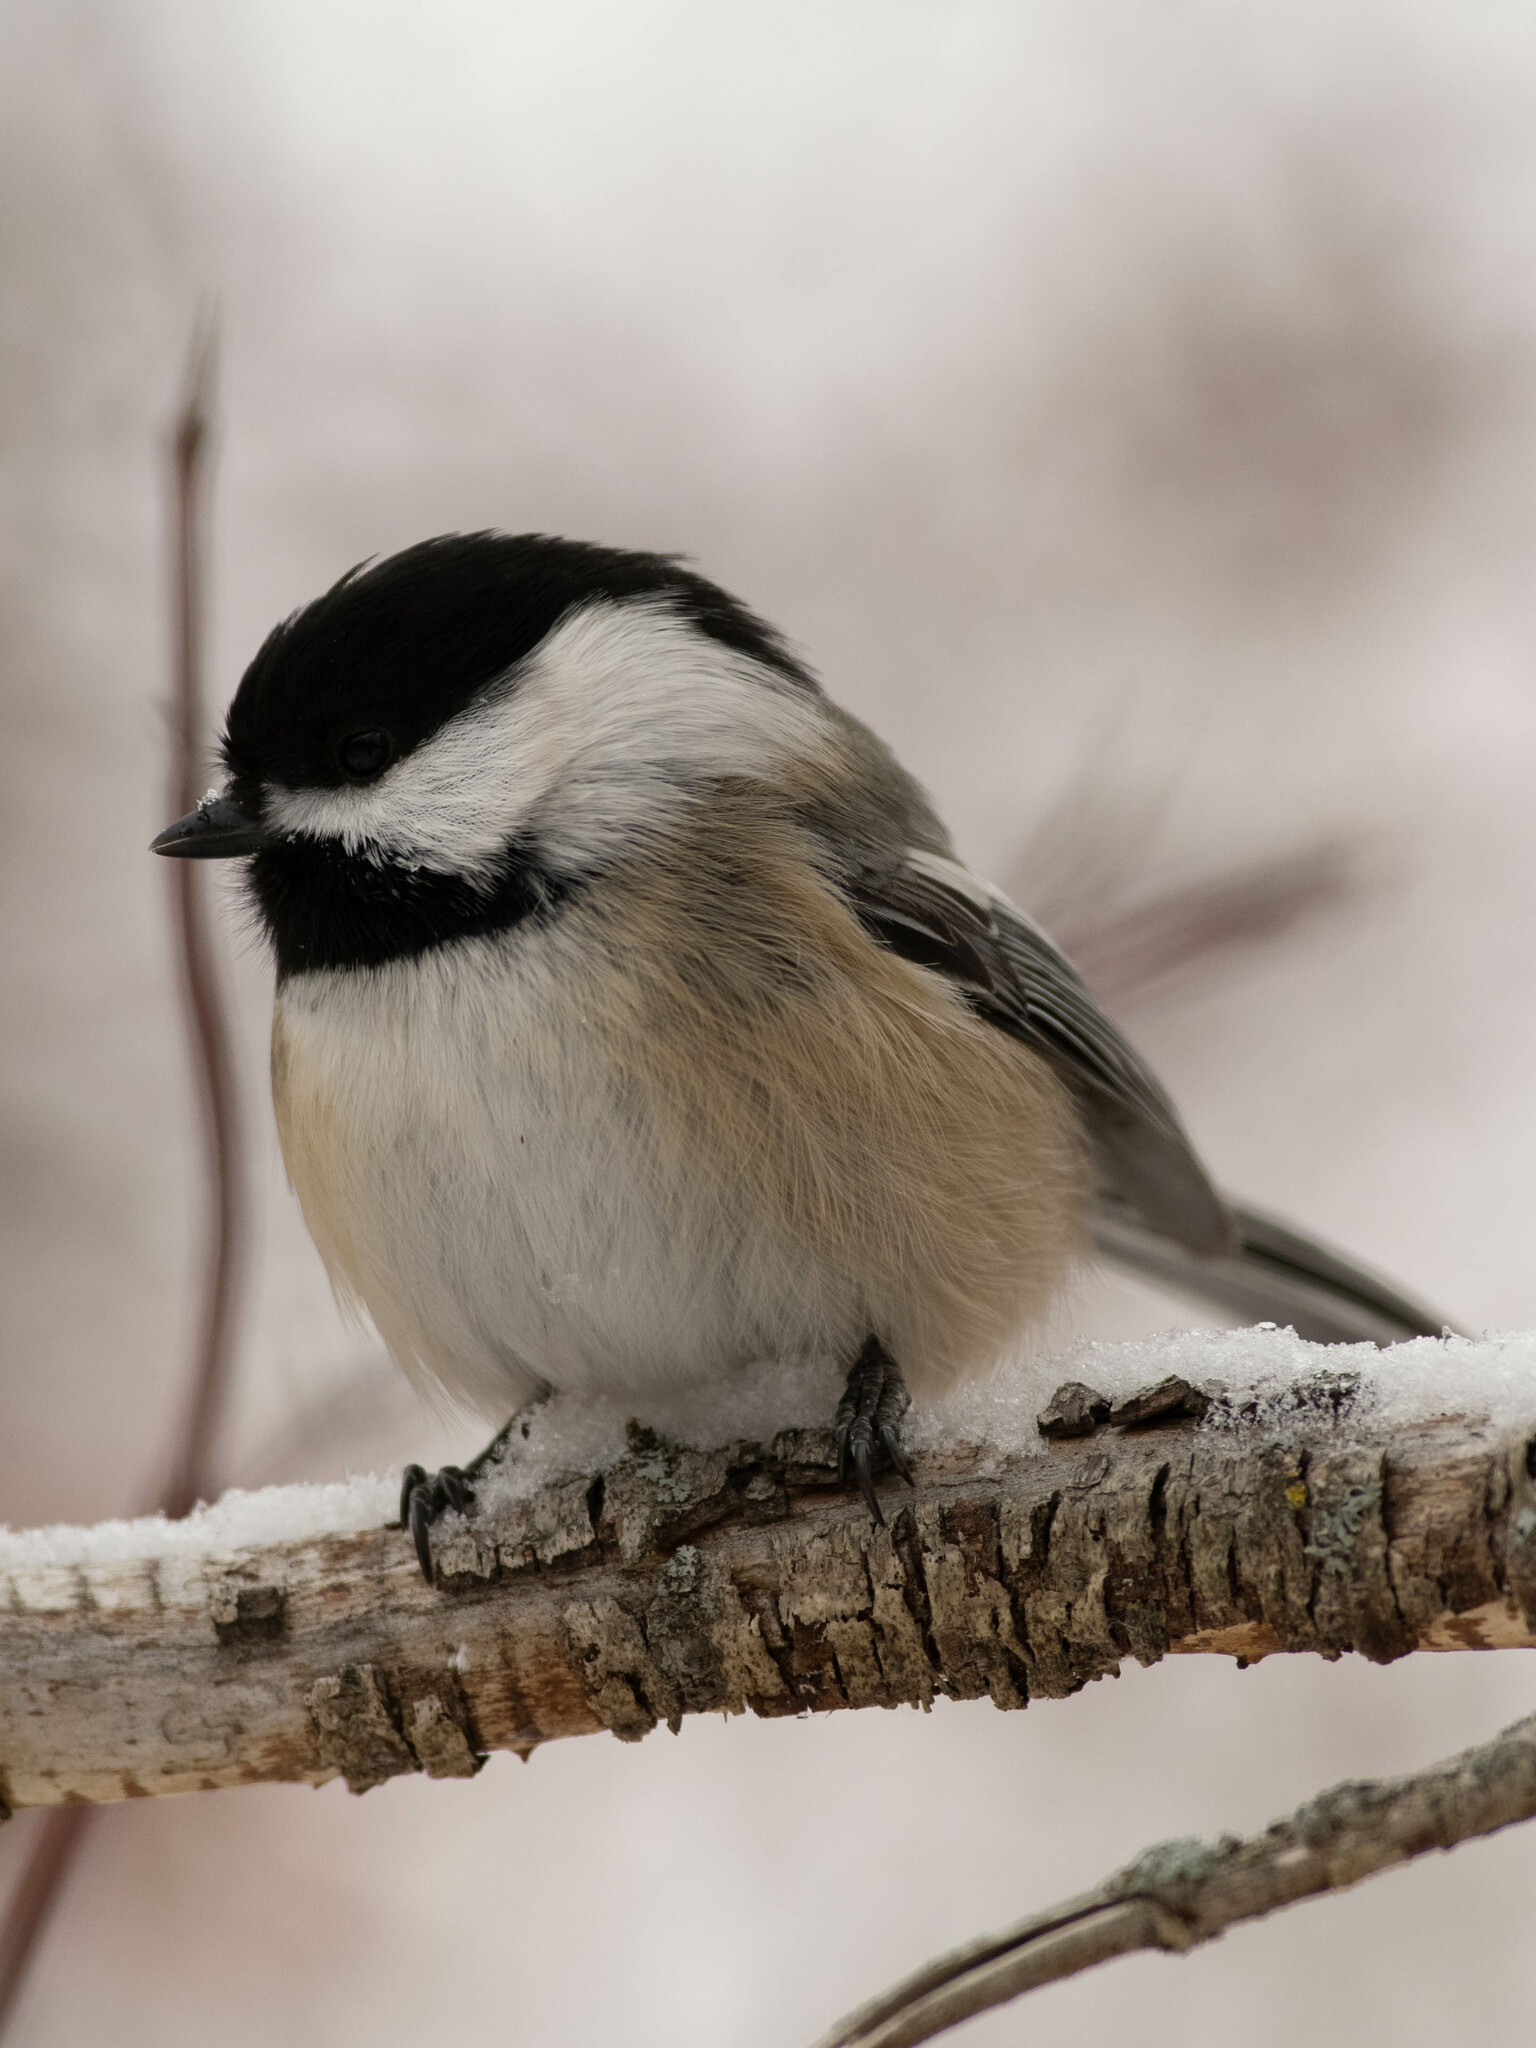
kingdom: Animalia
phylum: Chordata
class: Aves
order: Passeriformes
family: Paridae
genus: Poecile
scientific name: Poecile atricapillus
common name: Black-capped chickadee
